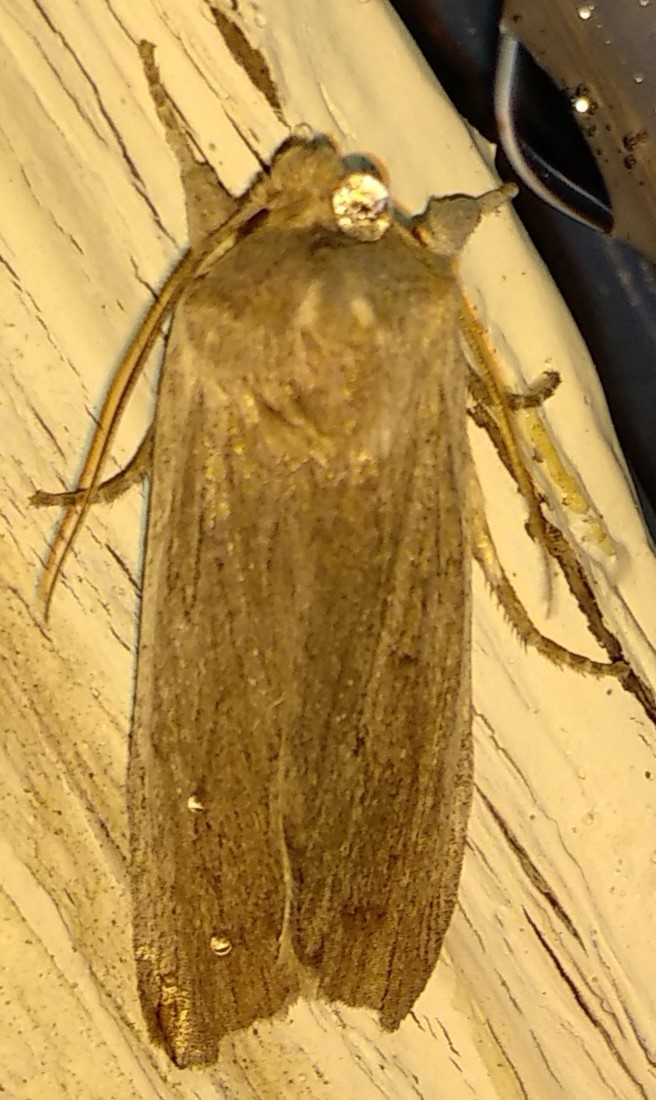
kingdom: Animalia
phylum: Arthropoda
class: Insecta
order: Lepidoptera
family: Noctuidae
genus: Lithophane
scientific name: Lithophane fagina
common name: Hoary pinion moth
